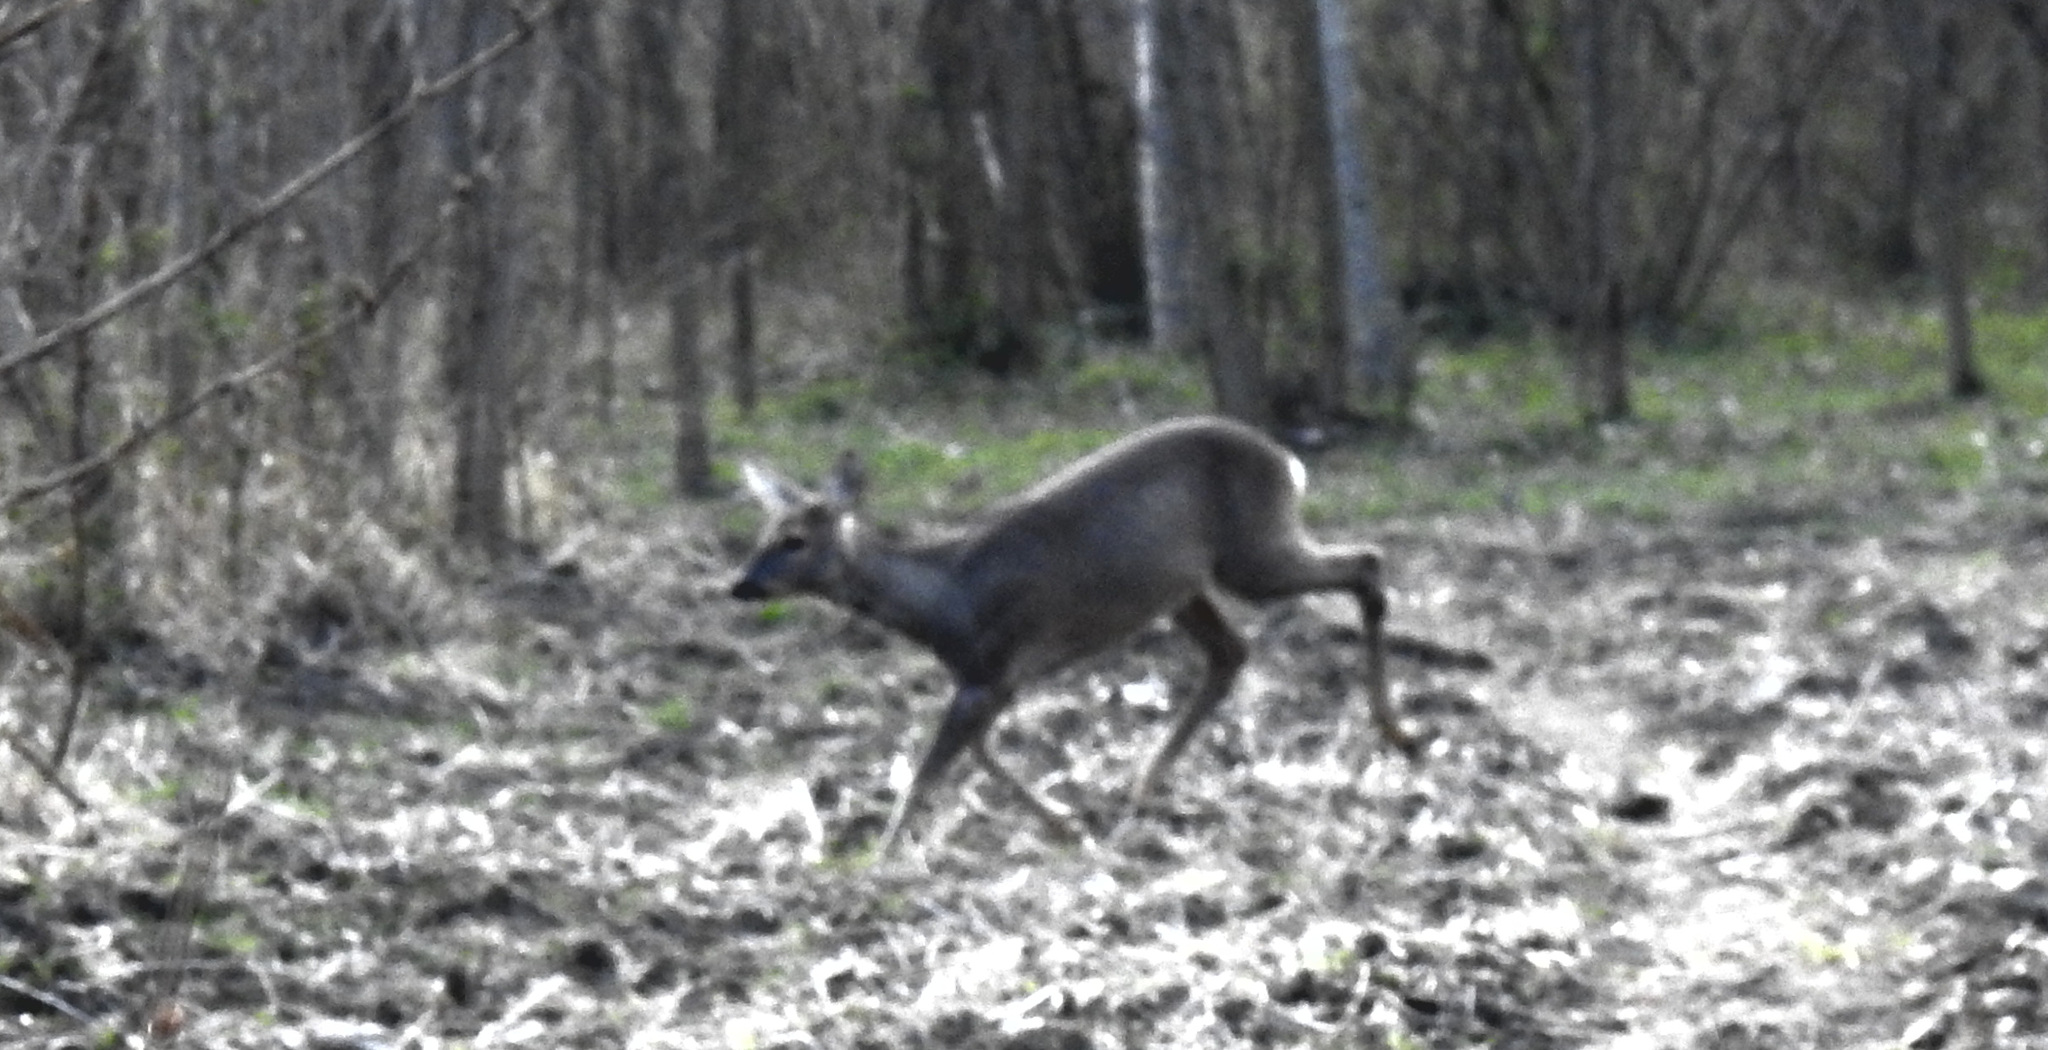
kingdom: Animalia
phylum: Chordata
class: Mammalia
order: Artiodactyla
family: Cervidae
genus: Capreolus
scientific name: Capreolus capreolus
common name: Western roe deer
